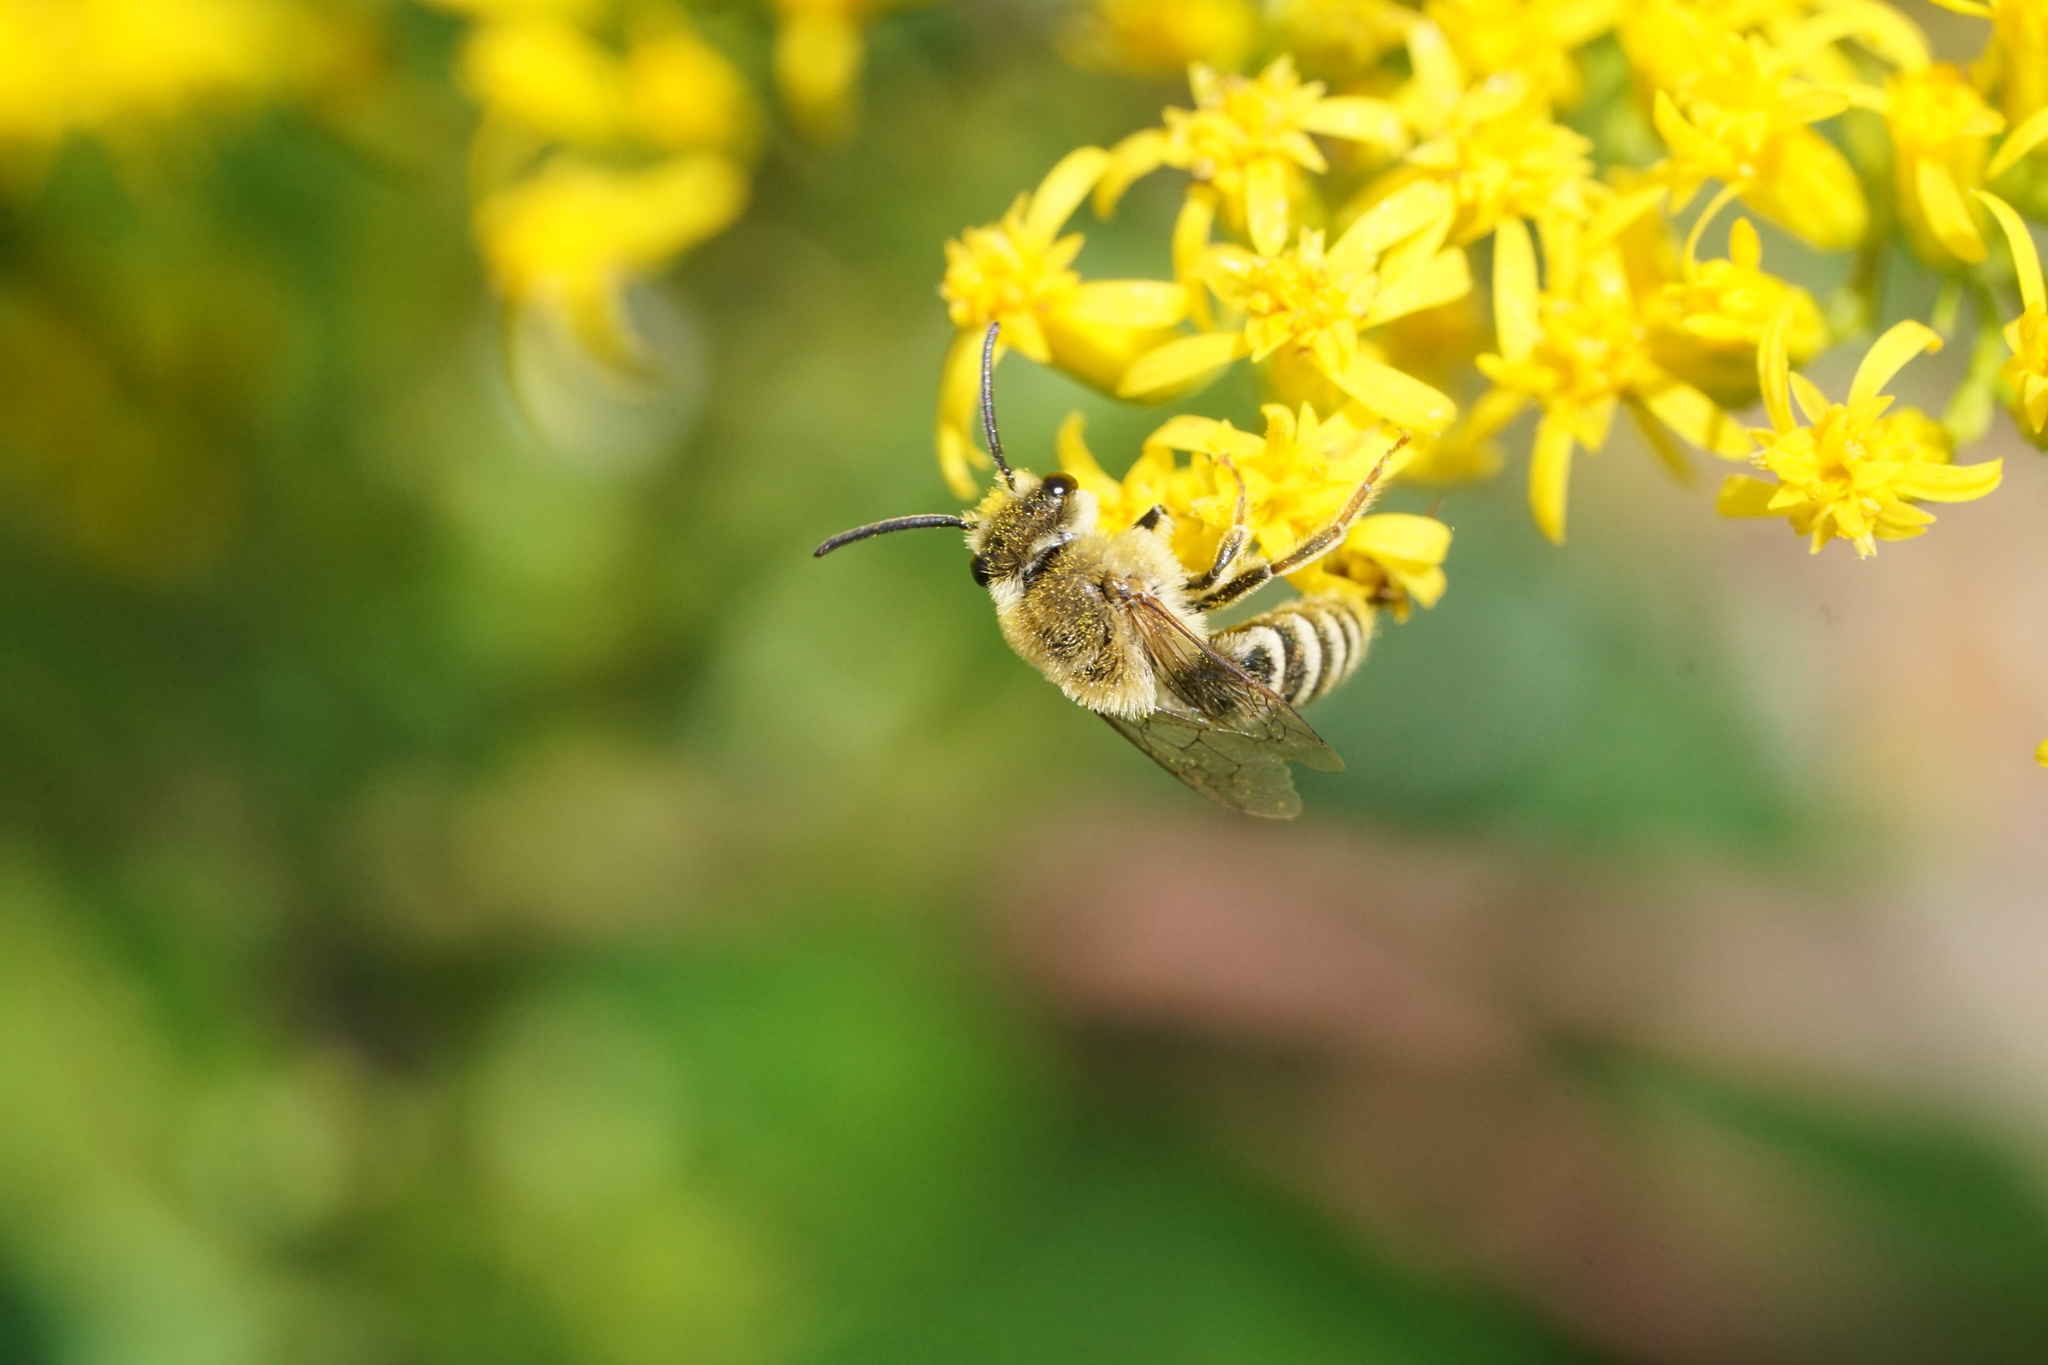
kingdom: Animalia
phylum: Arthropoda
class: Insecta
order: Hymenoptera
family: Colletidae
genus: Colletes
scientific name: Colletes solidaginis
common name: Goldenrod cellophane bee
